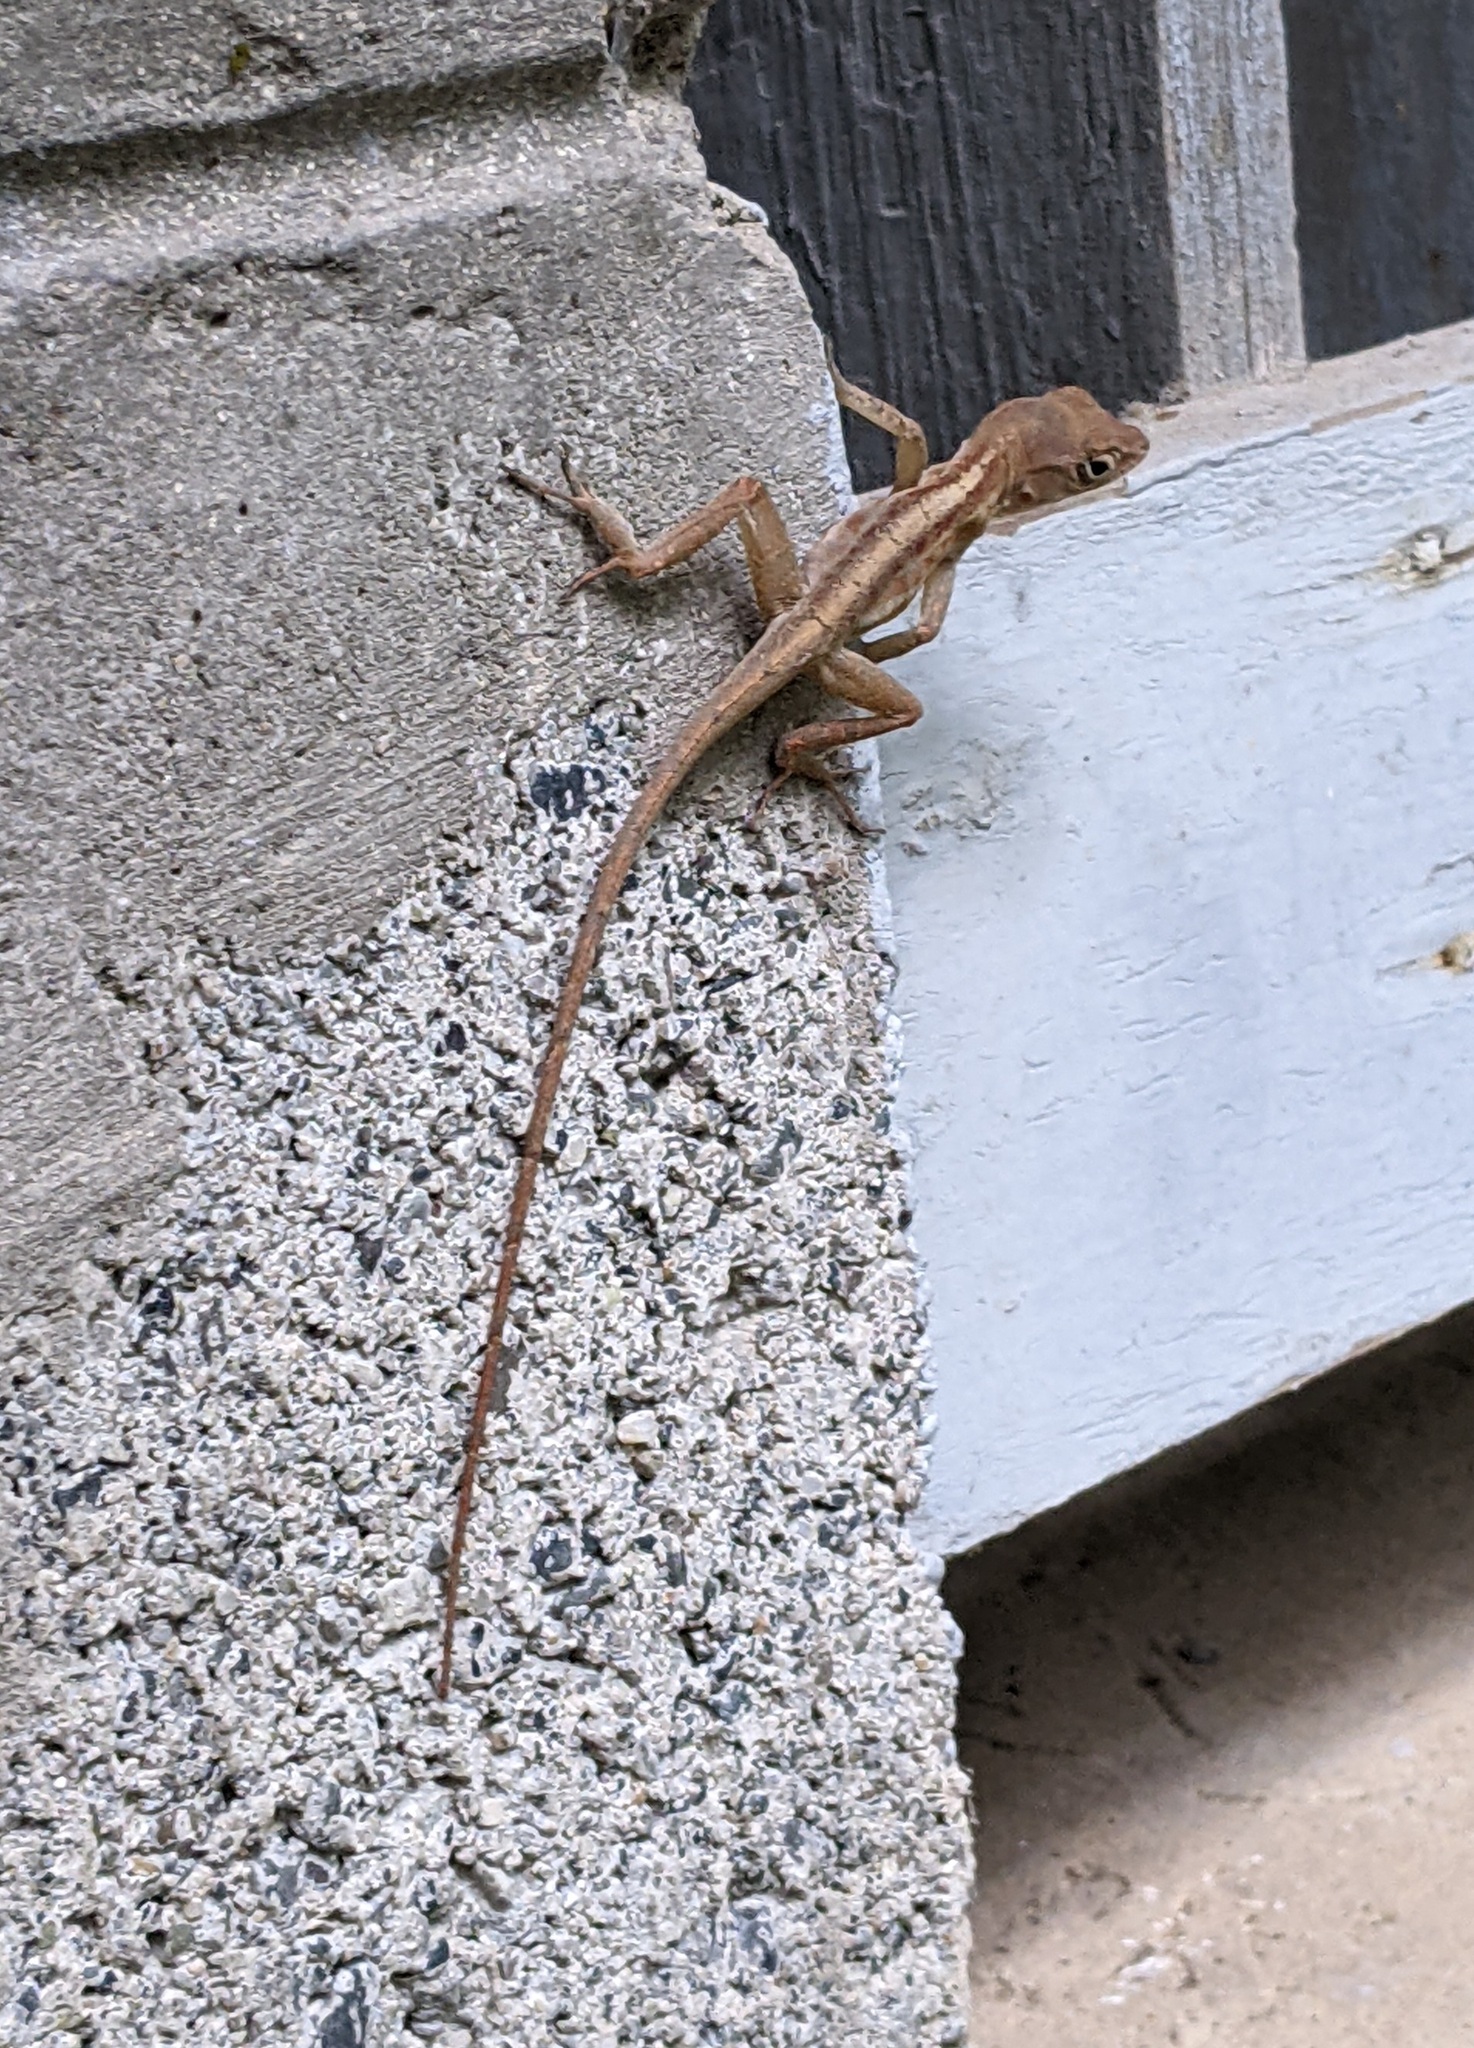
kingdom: Animalia
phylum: Chordata
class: Squamata
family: Dactyloidae
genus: Anolis
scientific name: Anolis hispaniolae
